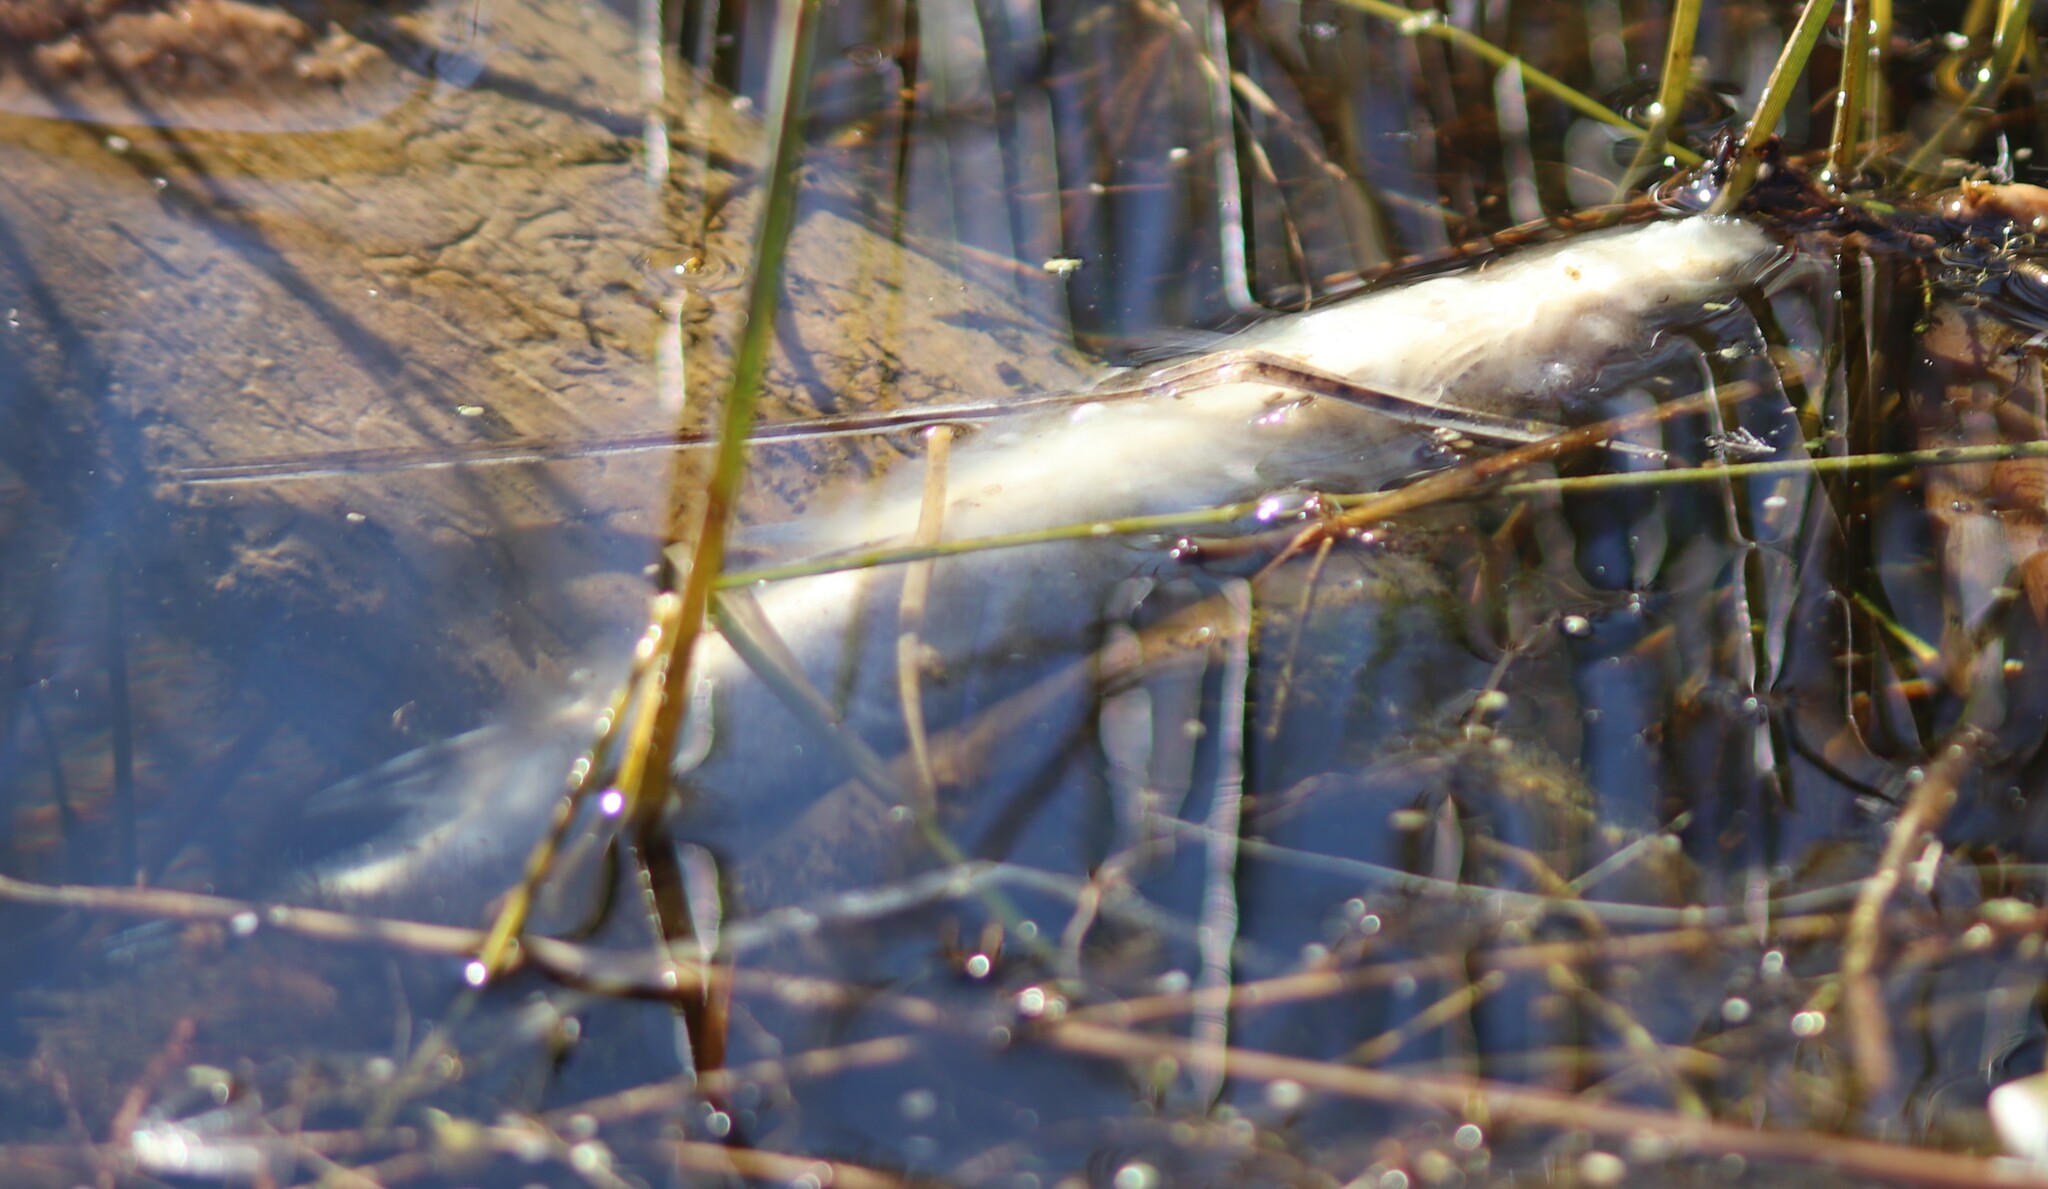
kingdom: Animalia
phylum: Chordata
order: Esociformes
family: Esocidae
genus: Esox
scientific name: Esox lucius
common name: Northern pike
